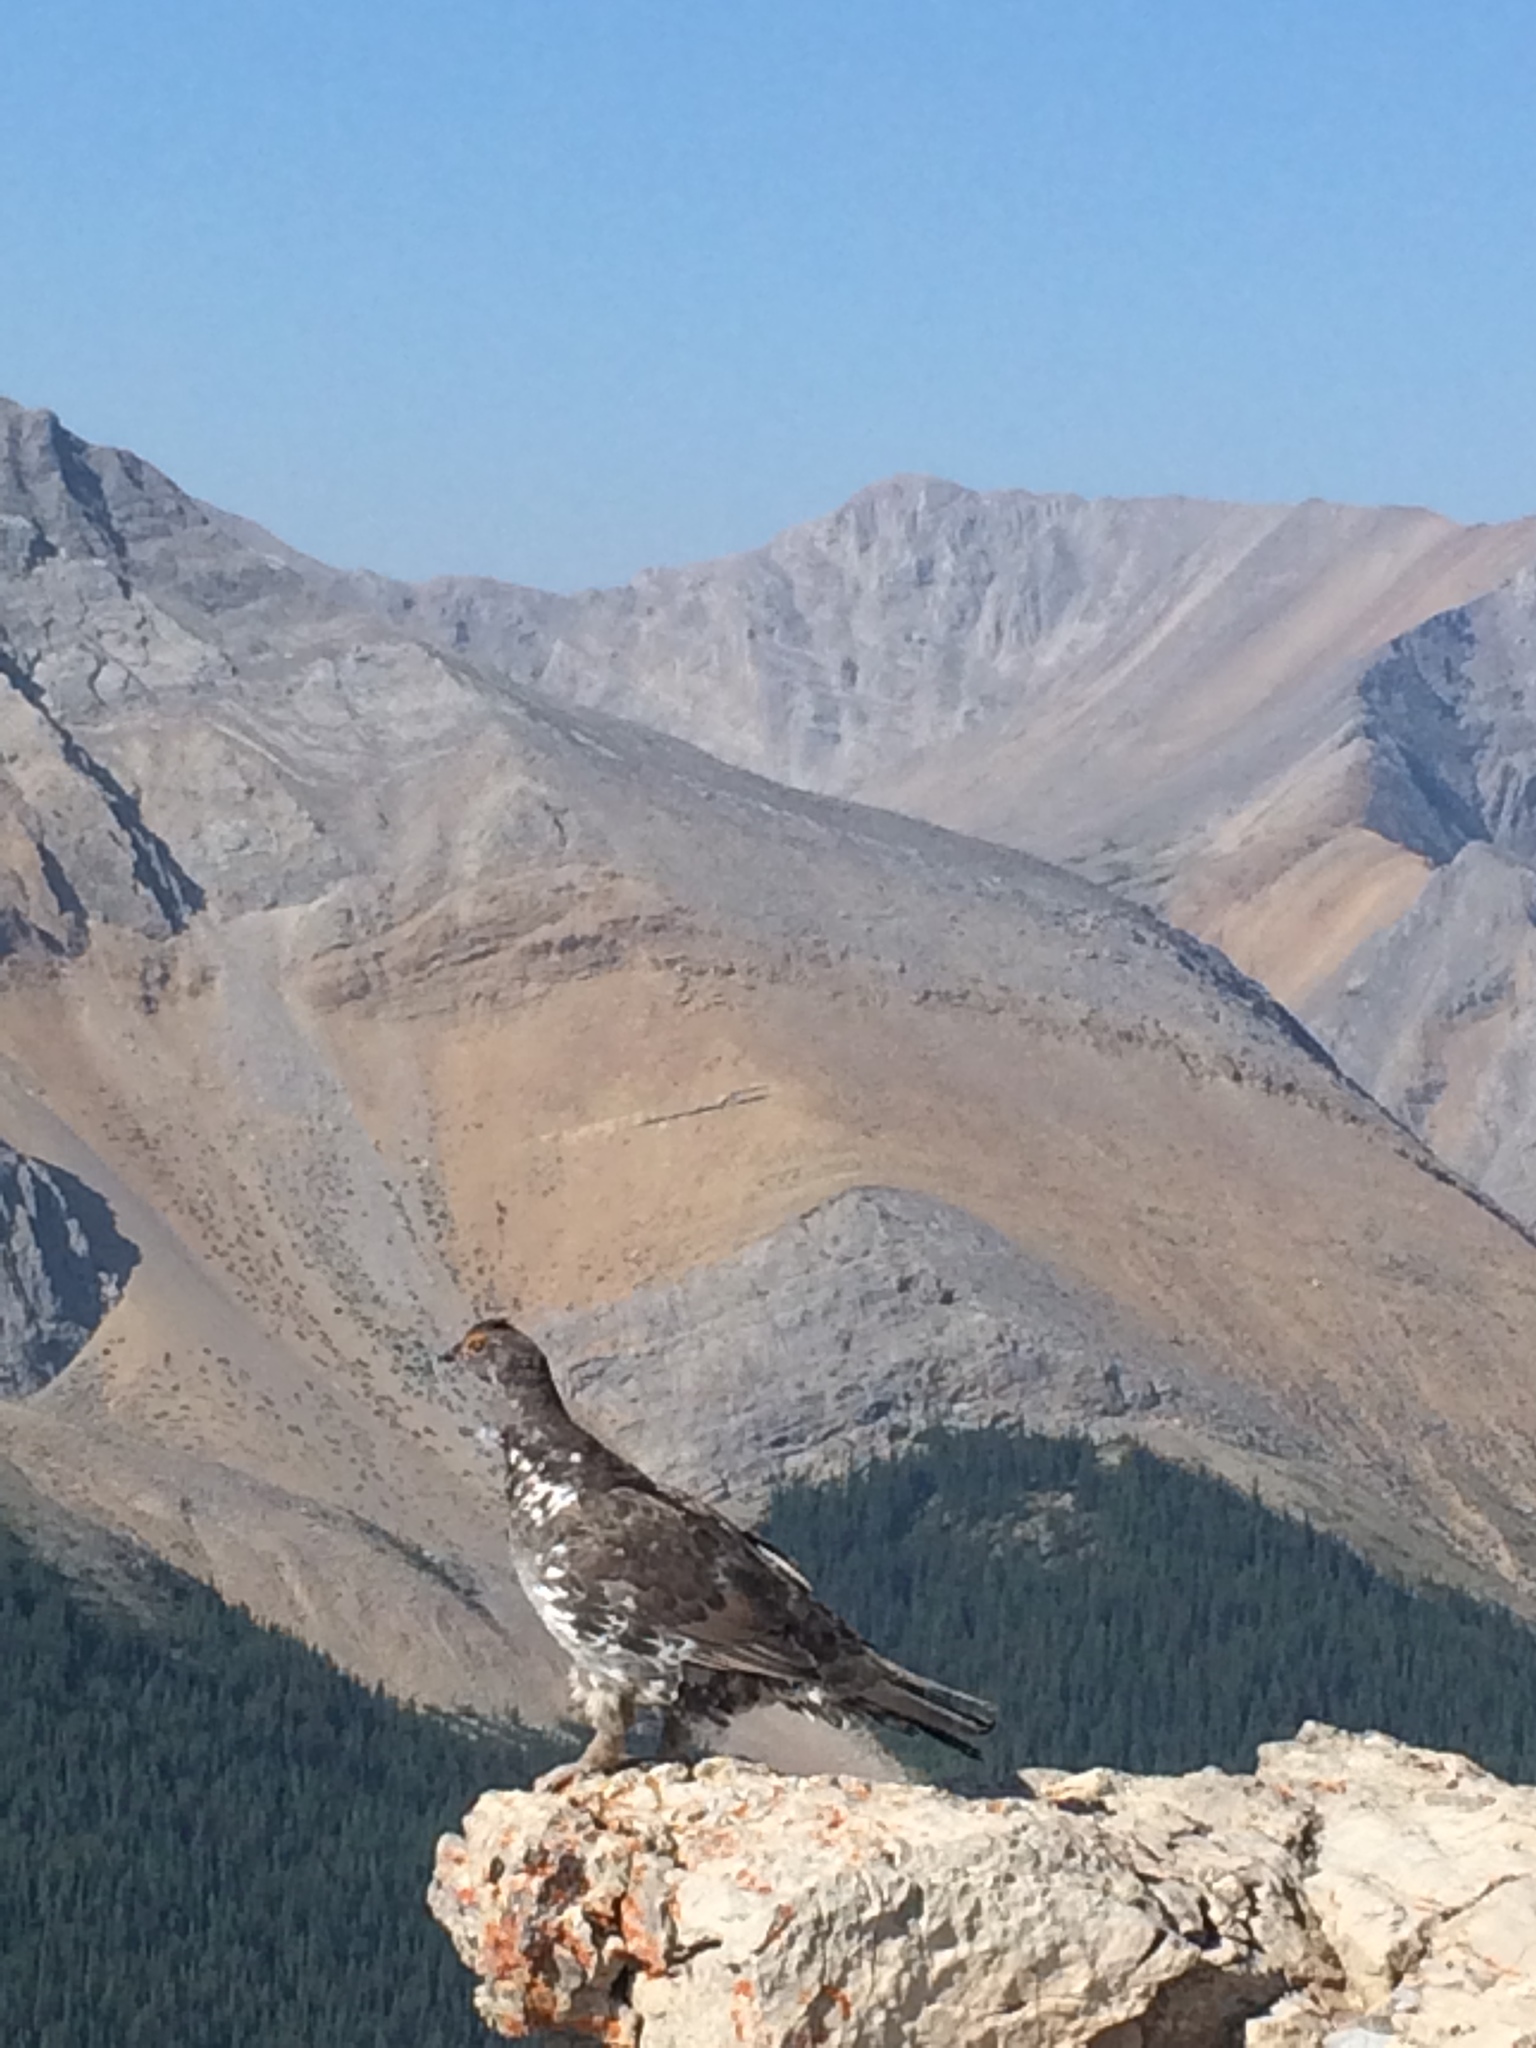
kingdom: Animalia
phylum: Chordata
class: Aves
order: Galliformes
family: Phasianidae
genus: Dendragapus
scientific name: Dendragapus obscurus
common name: Dusky grouse
